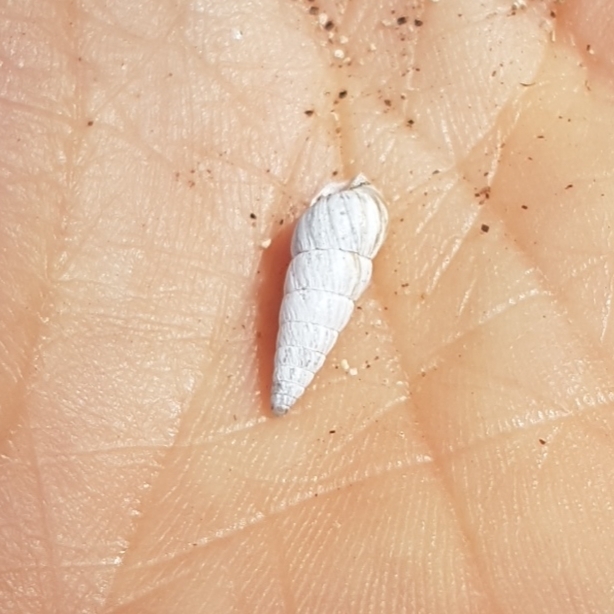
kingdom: Animalia
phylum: Mollusca
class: Gastropoda
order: Stylommatophora
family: Geomitridae
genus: Cochlicella
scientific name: Cochlicella acuta
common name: Pointed snail
